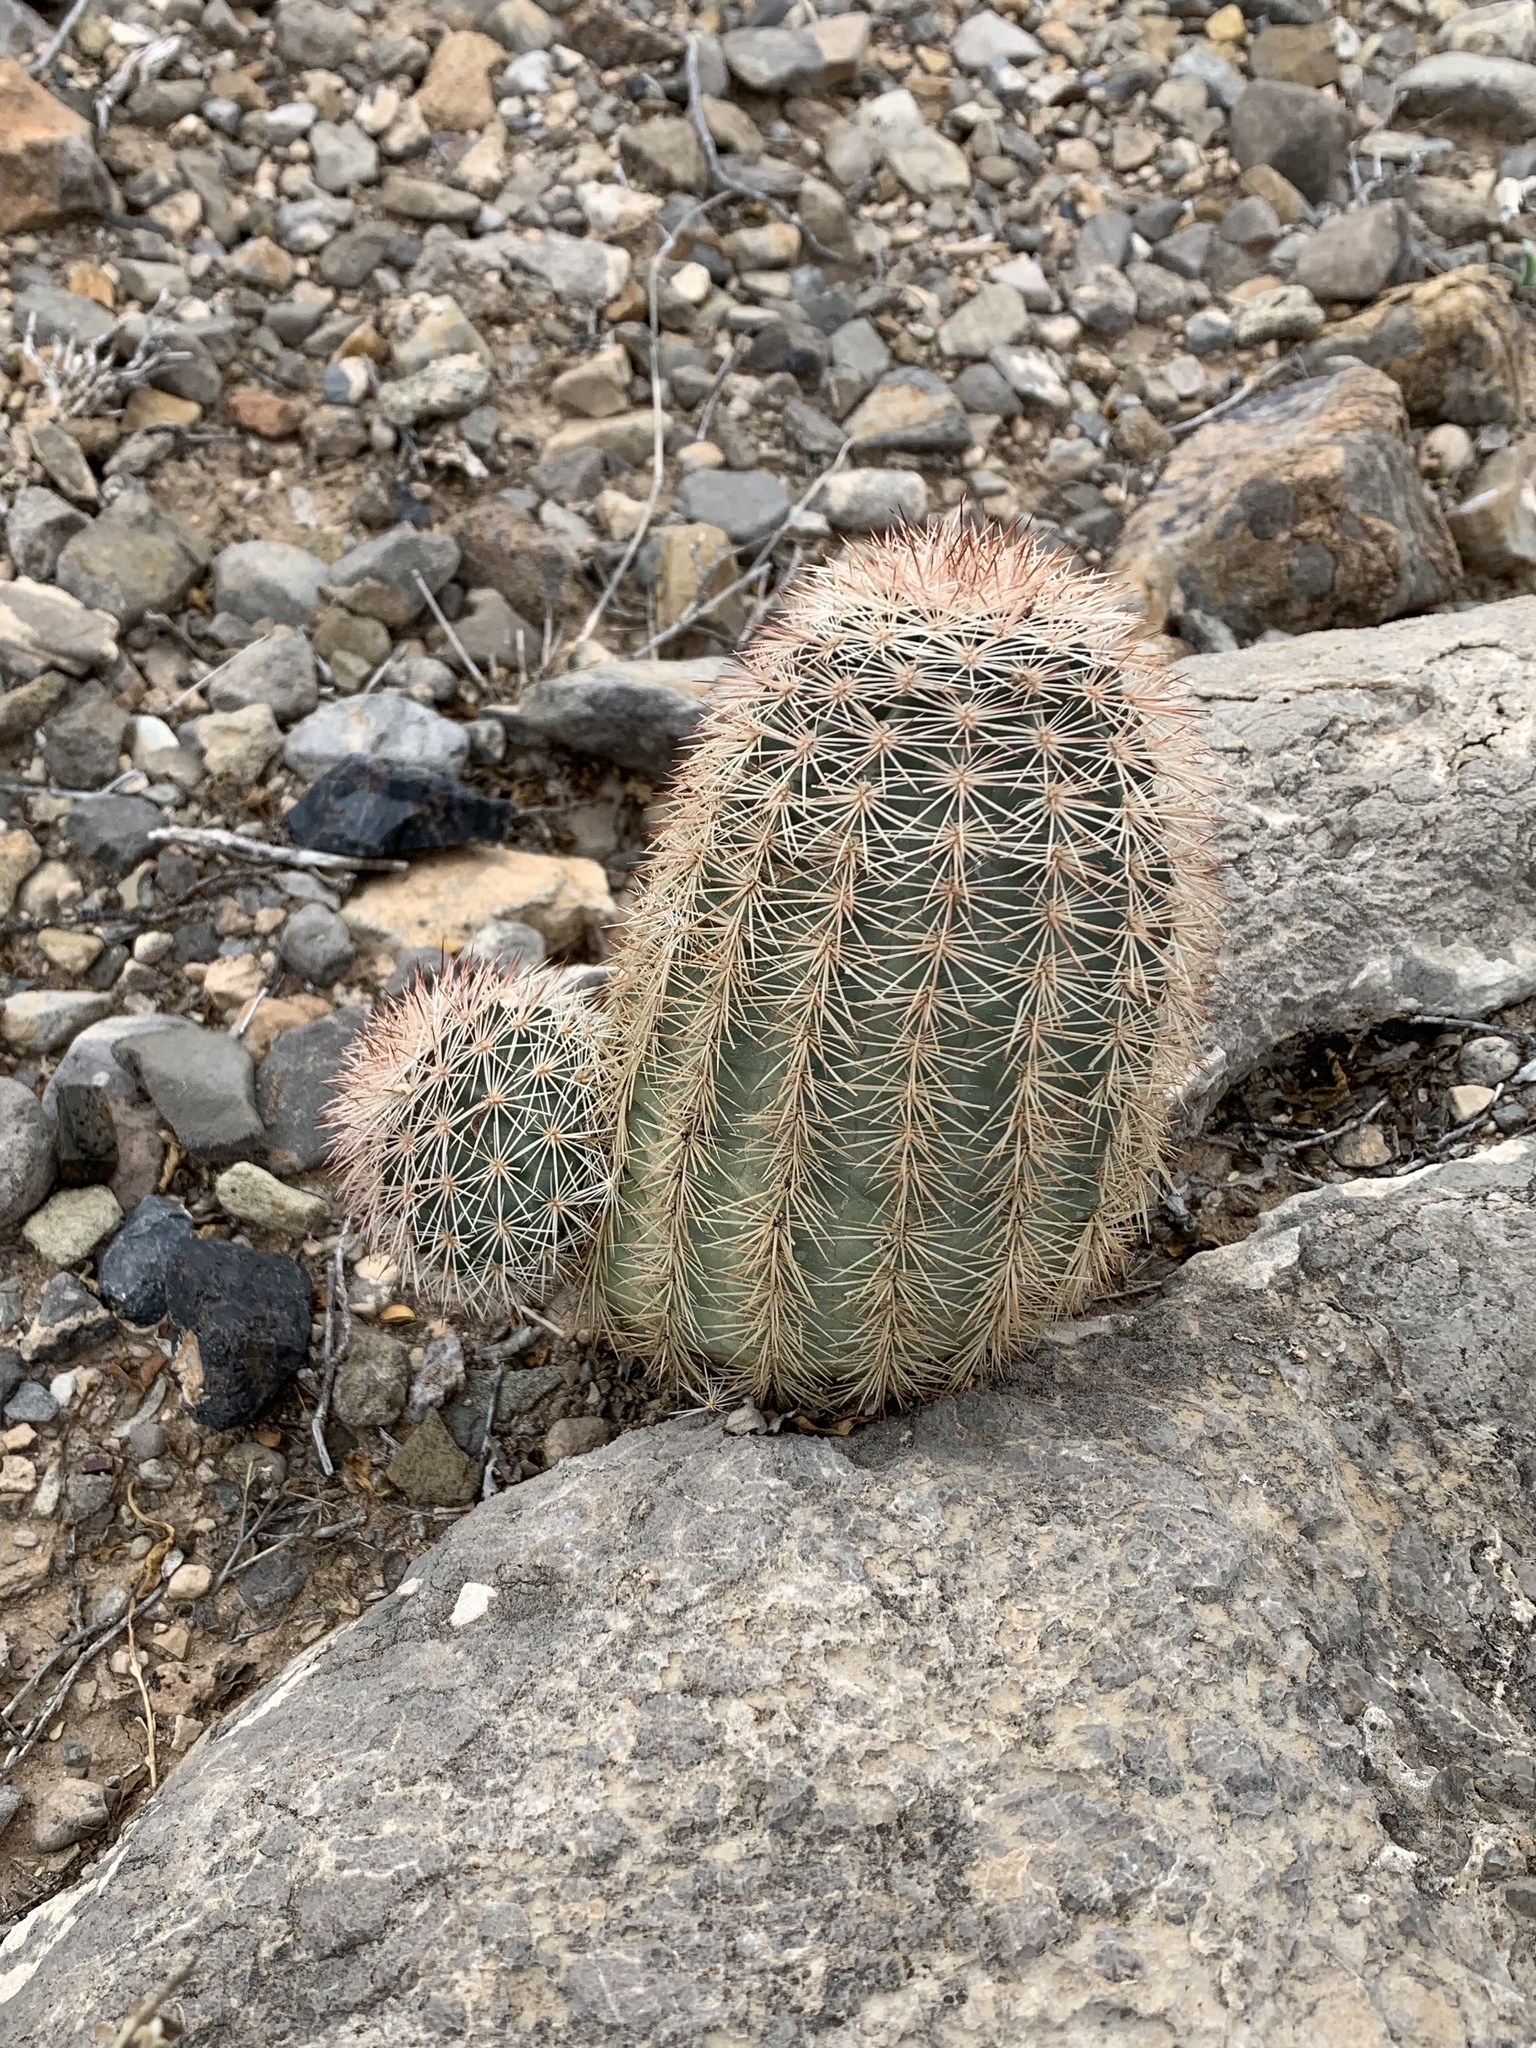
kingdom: Plantae
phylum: Tracheophyta
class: Magnoliopsida
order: Caryophyllales
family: Cactaceae
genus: Echinocereus
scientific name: Echinocereus dasyacanthus
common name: Spiny hedgehog cactus
